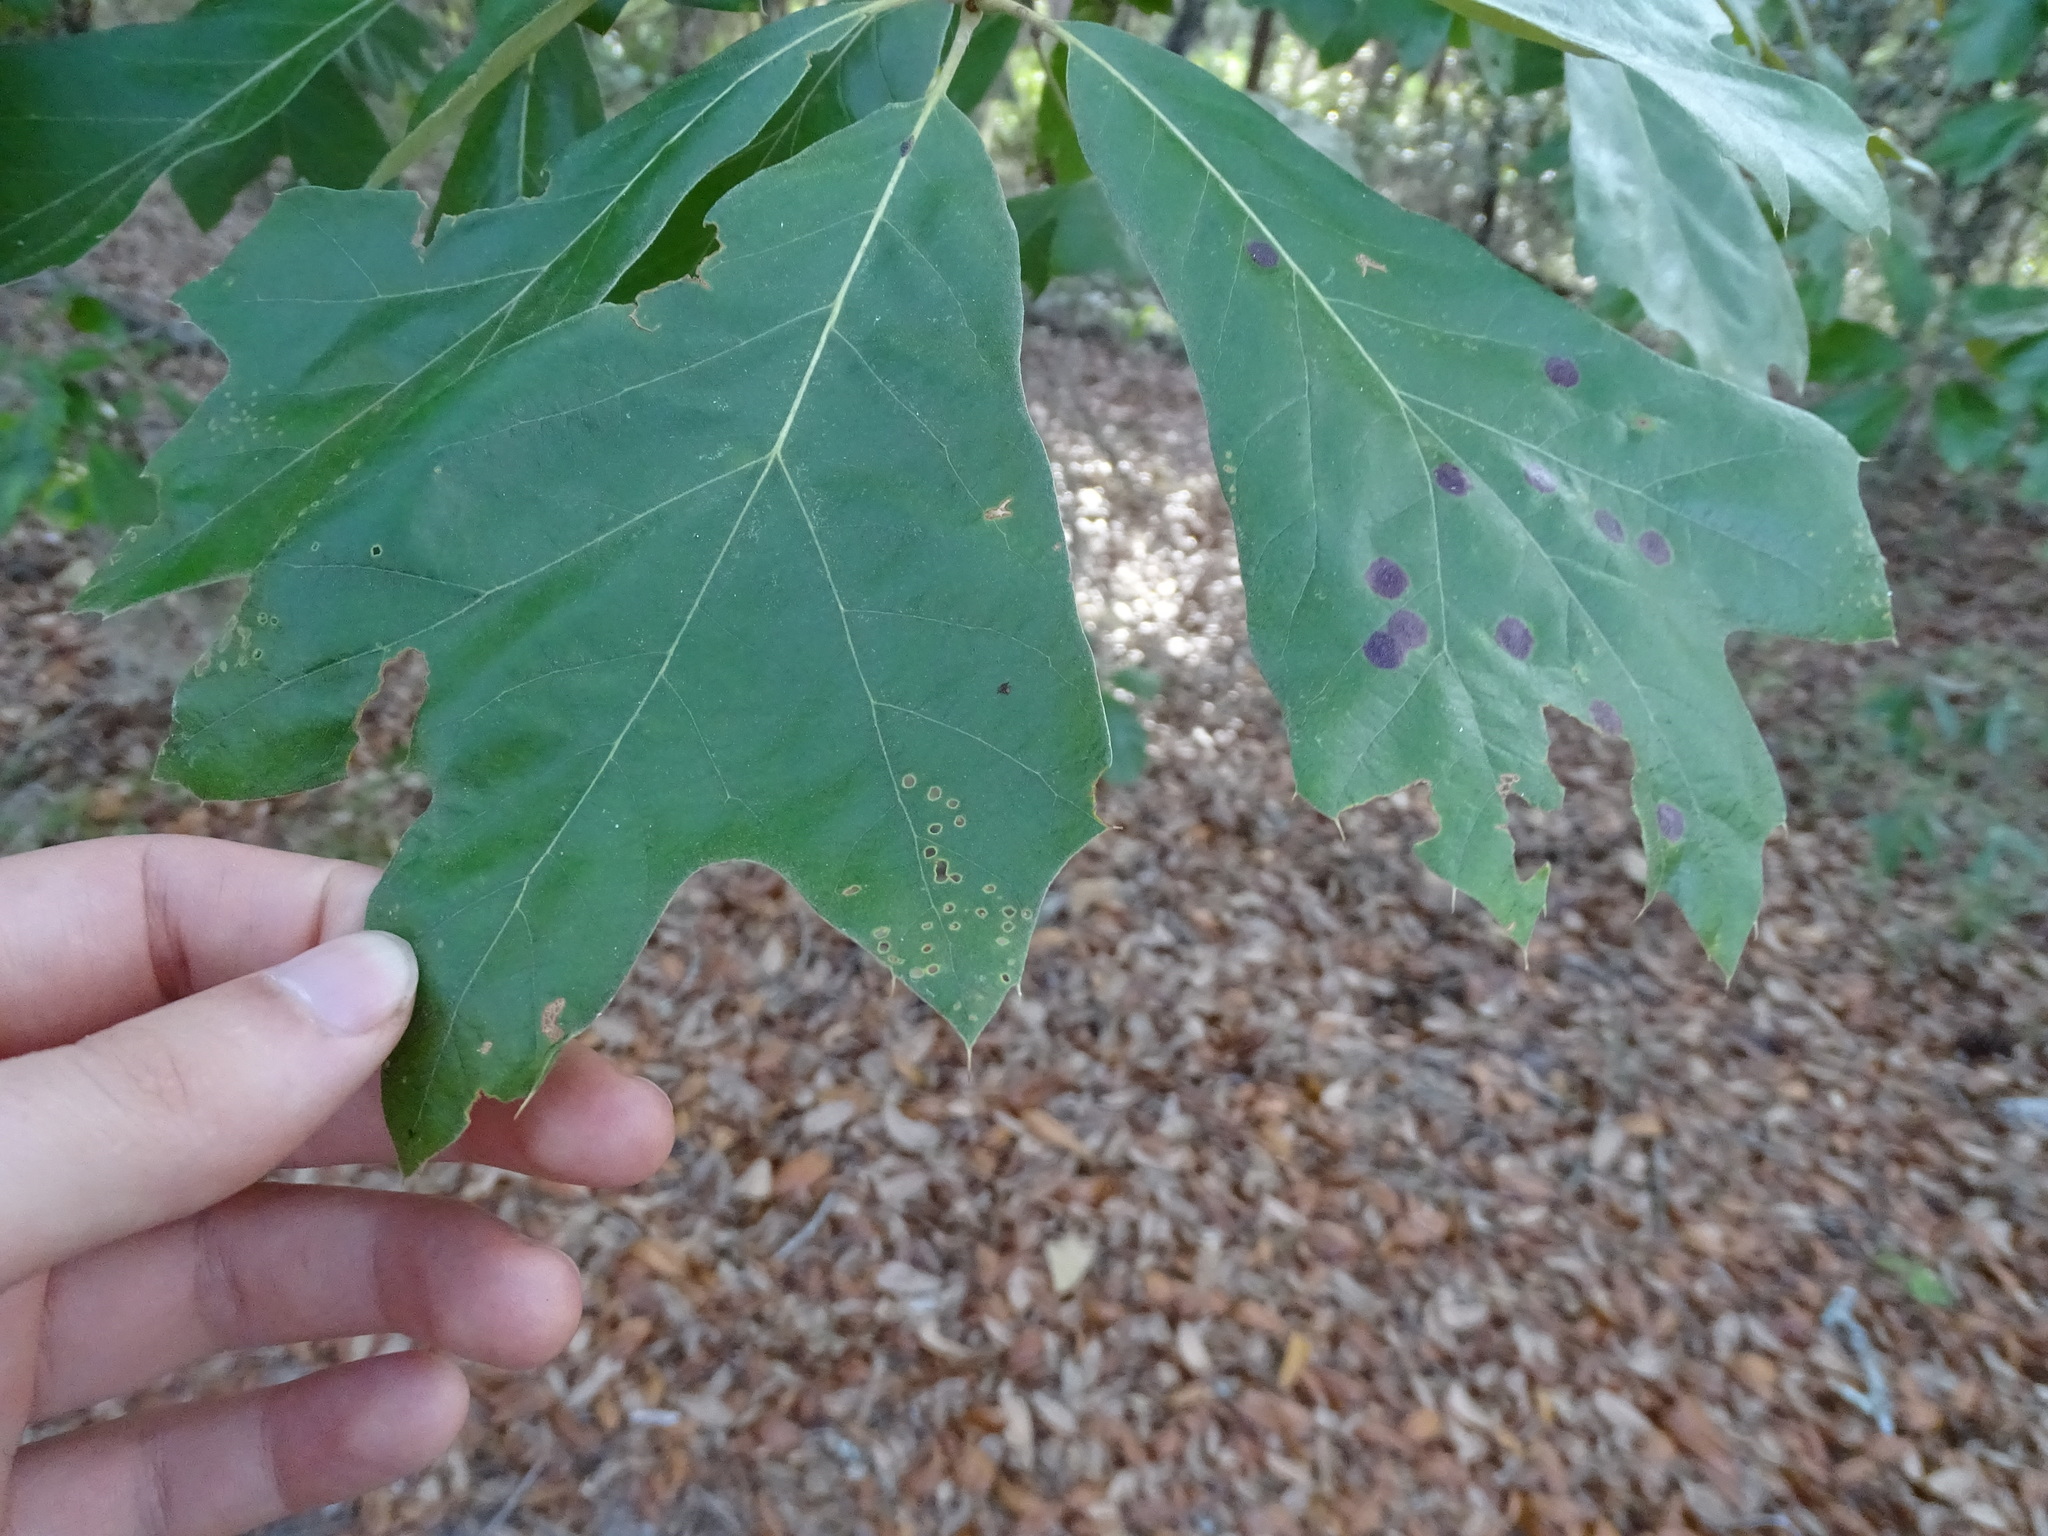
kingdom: Plantae
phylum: Tracheophyta
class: Magnoliopsida
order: Fagales
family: Fagaceae
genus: Quercus
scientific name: Quercus falcata
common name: Southern red oak
